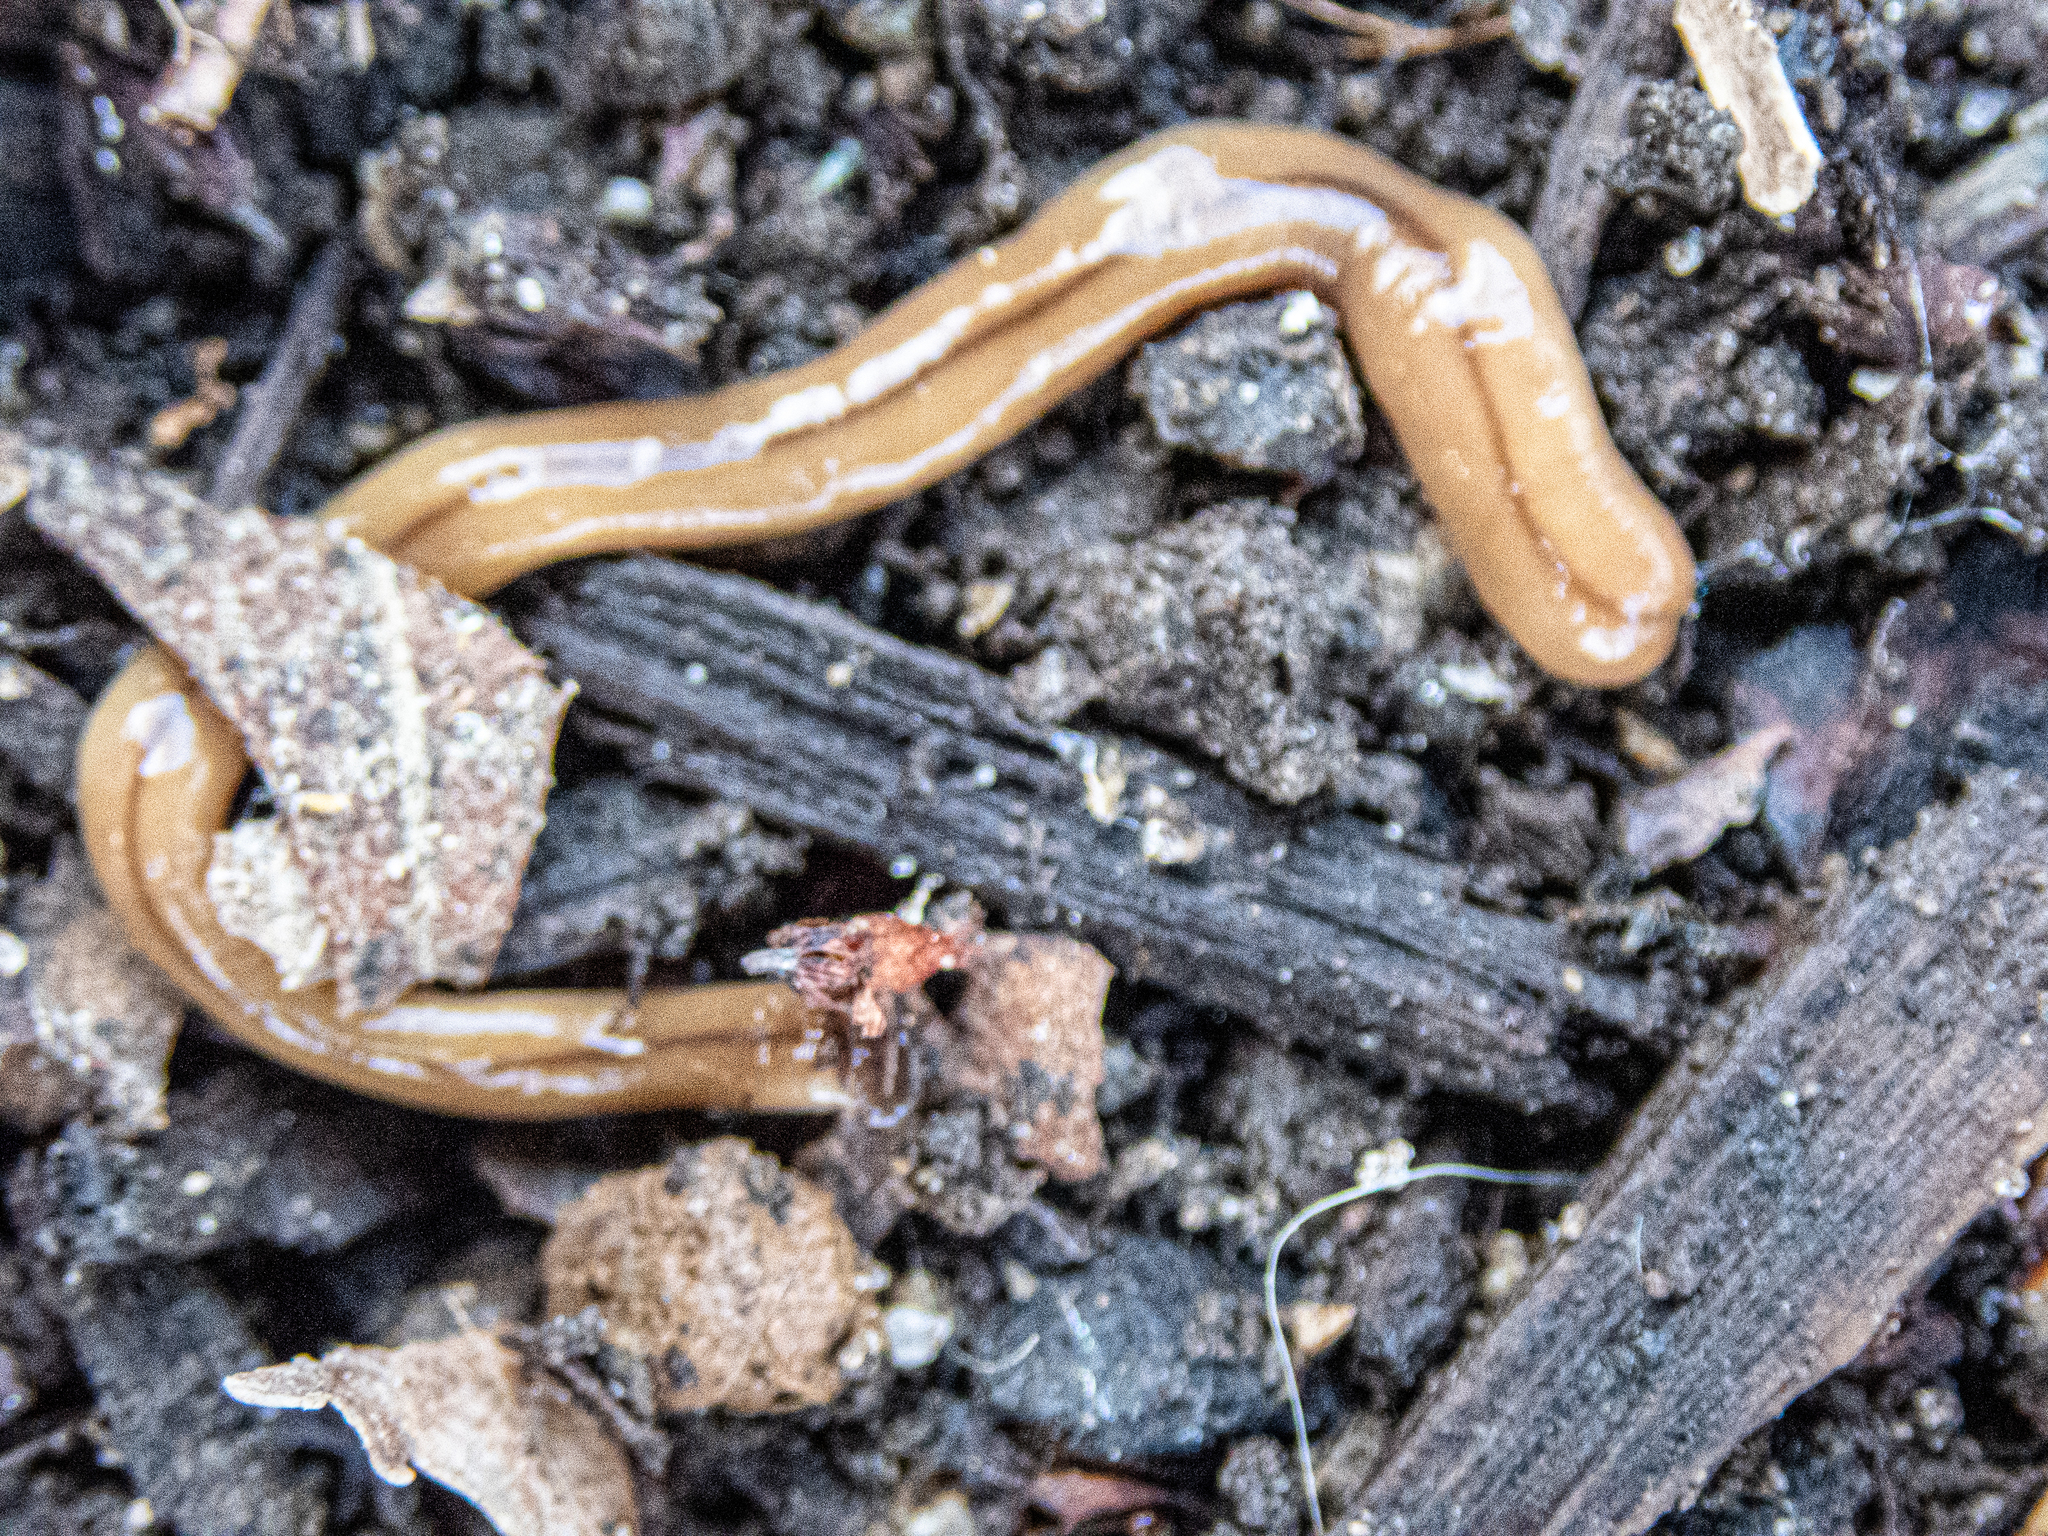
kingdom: Animalia
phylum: Platyhelminthes
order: Tricladida
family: Geoplanidae
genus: Bipalium
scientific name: Bipalium adventitium
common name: Land planarian
